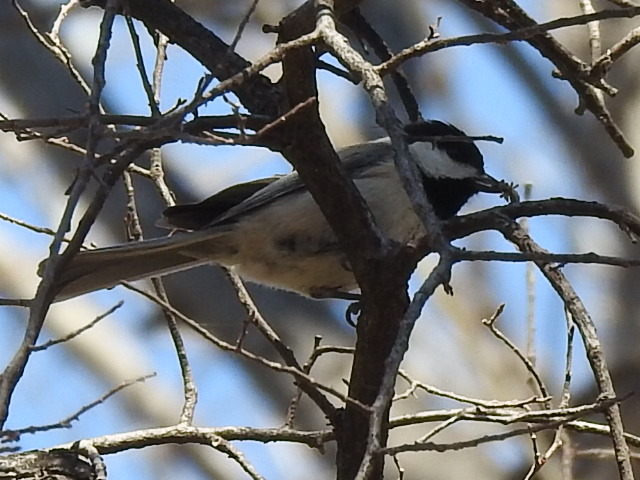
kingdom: Animalia
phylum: Chordata
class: Aves
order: Passeriformes
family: Paridae
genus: Poecile
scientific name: Poecile carolinensis
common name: Carolina chickadee
